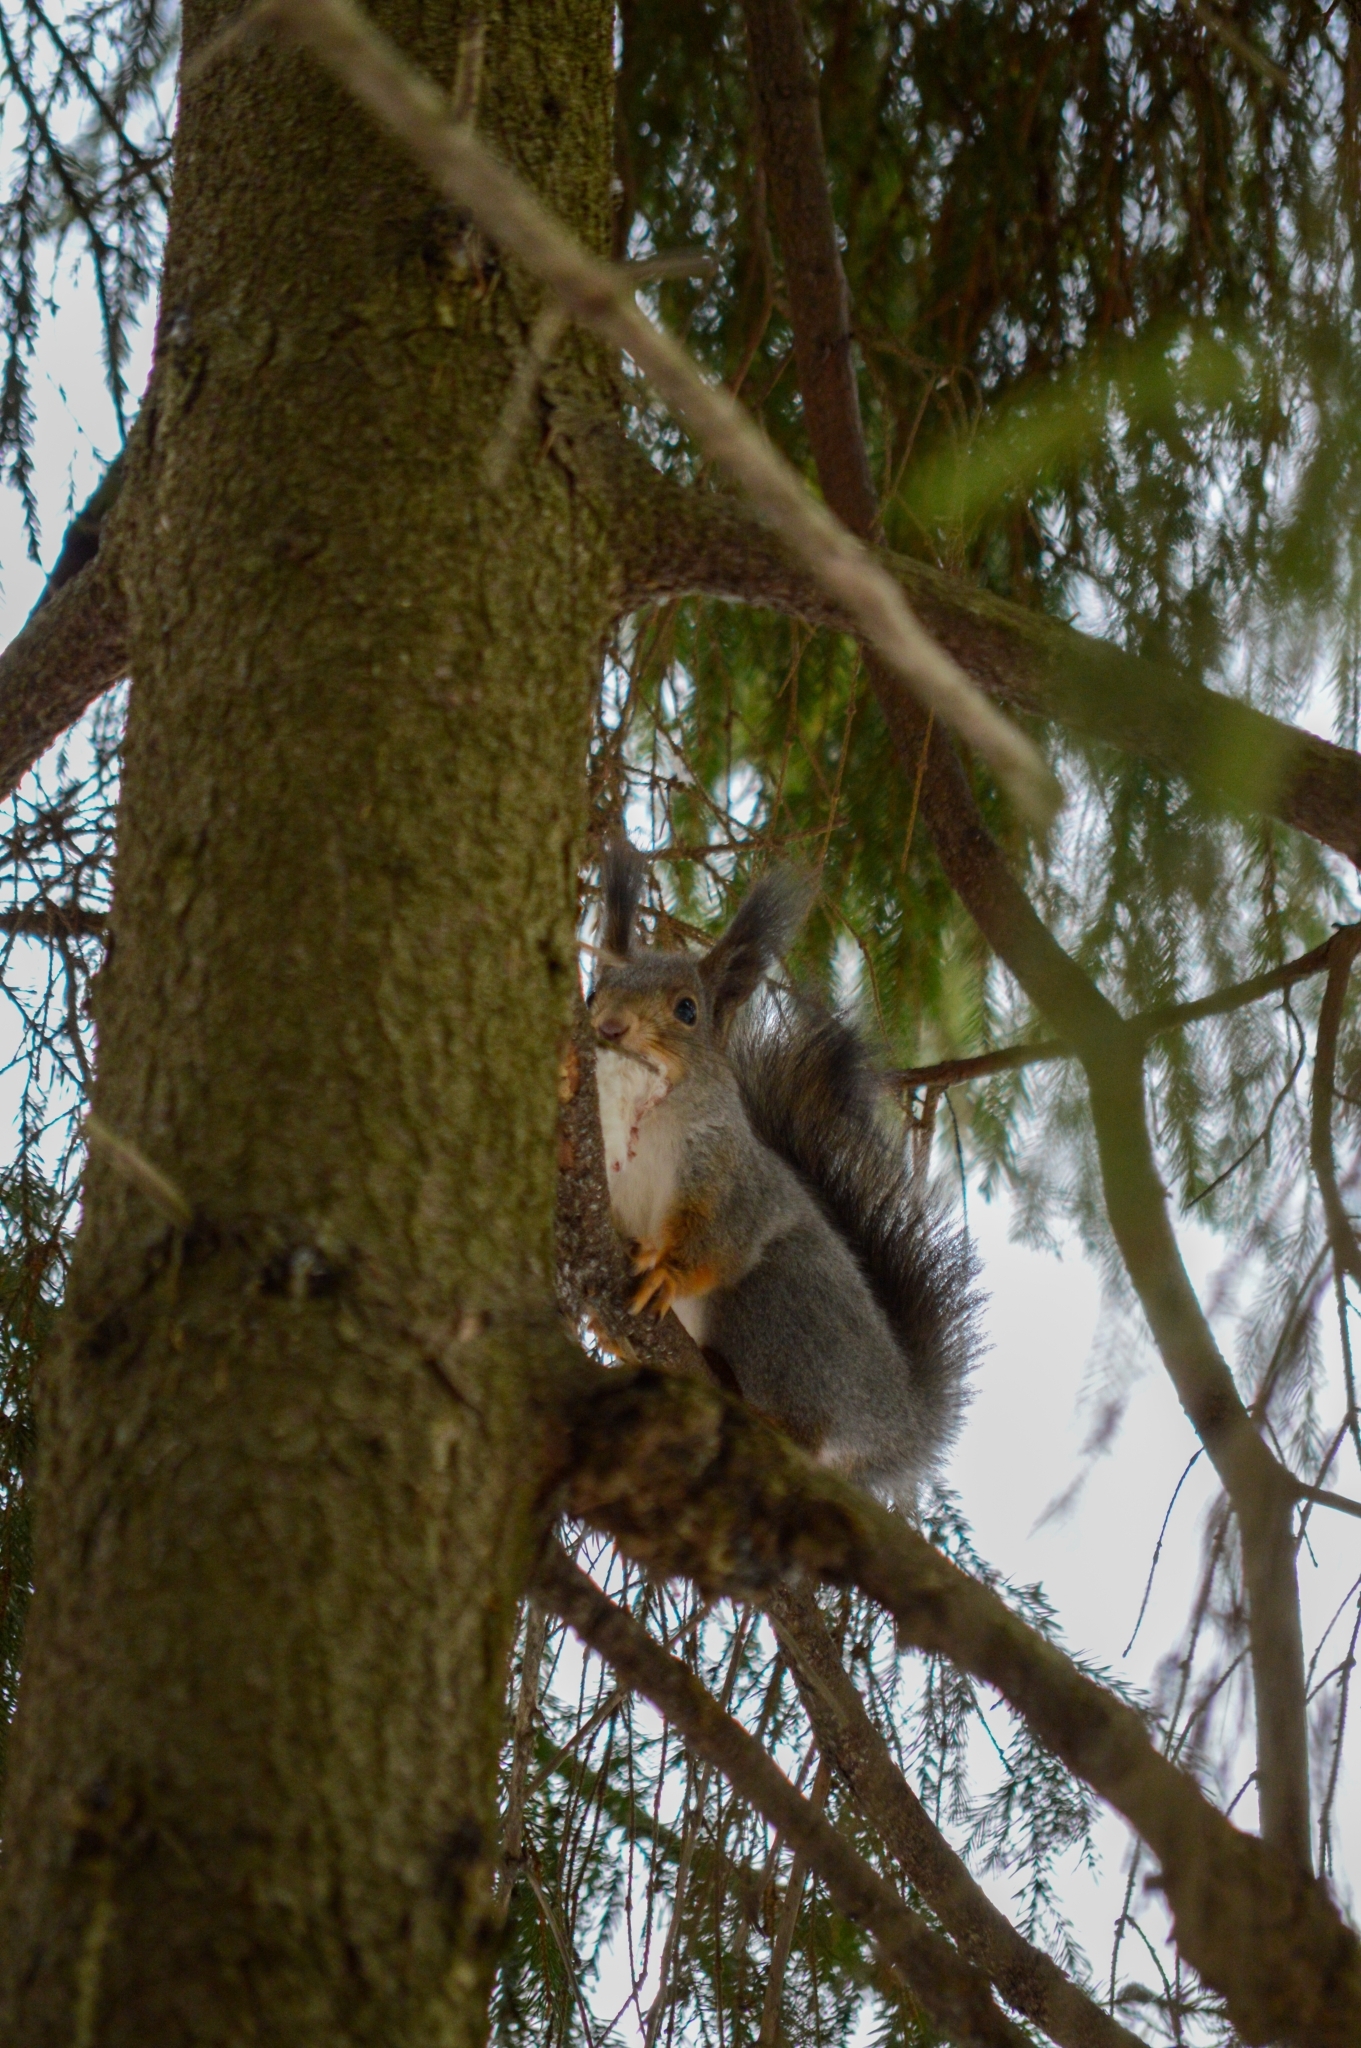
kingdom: Animalia
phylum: Chordata
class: Mammalia
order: Rodentia
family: Sciuridae
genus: Sciurus
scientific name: Sciurus vulgaris
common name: Eurasian red squirrel
